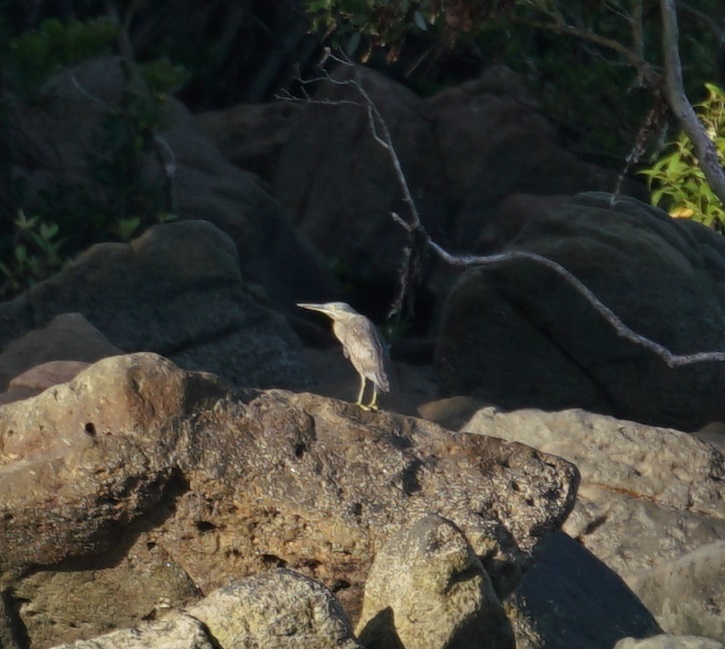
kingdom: Animalia
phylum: Chordata
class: Aves
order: Pelecaniformes
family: Ardeidae
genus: Butorides
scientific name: Butorides striata
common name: Striated heron
